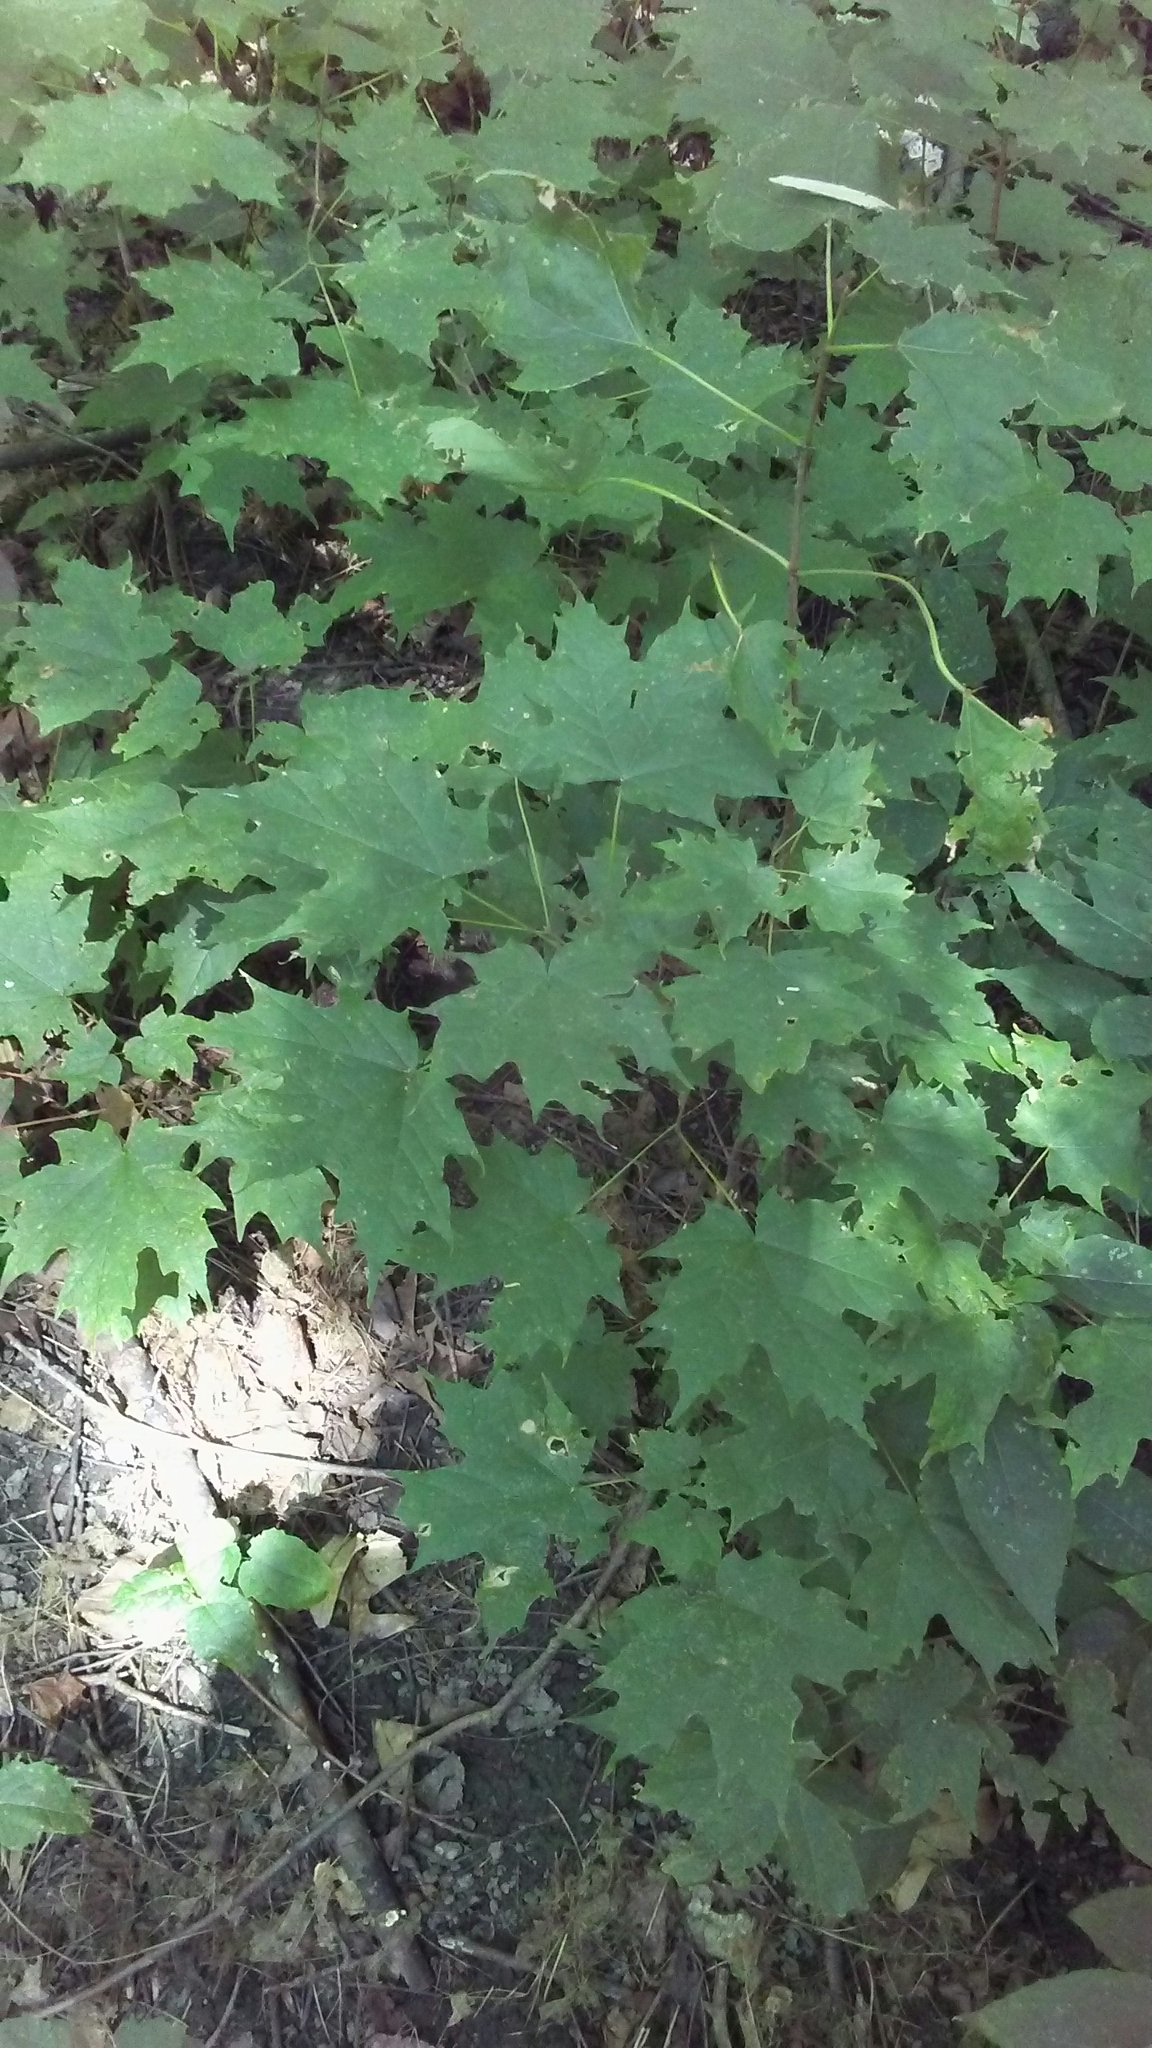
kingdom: Plantae
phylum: Tracheophyta
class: Magnoliopsida
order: Sapindales
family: Sapindaceae
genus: Acer
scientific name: Acer saccharum
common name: Sugar maple
